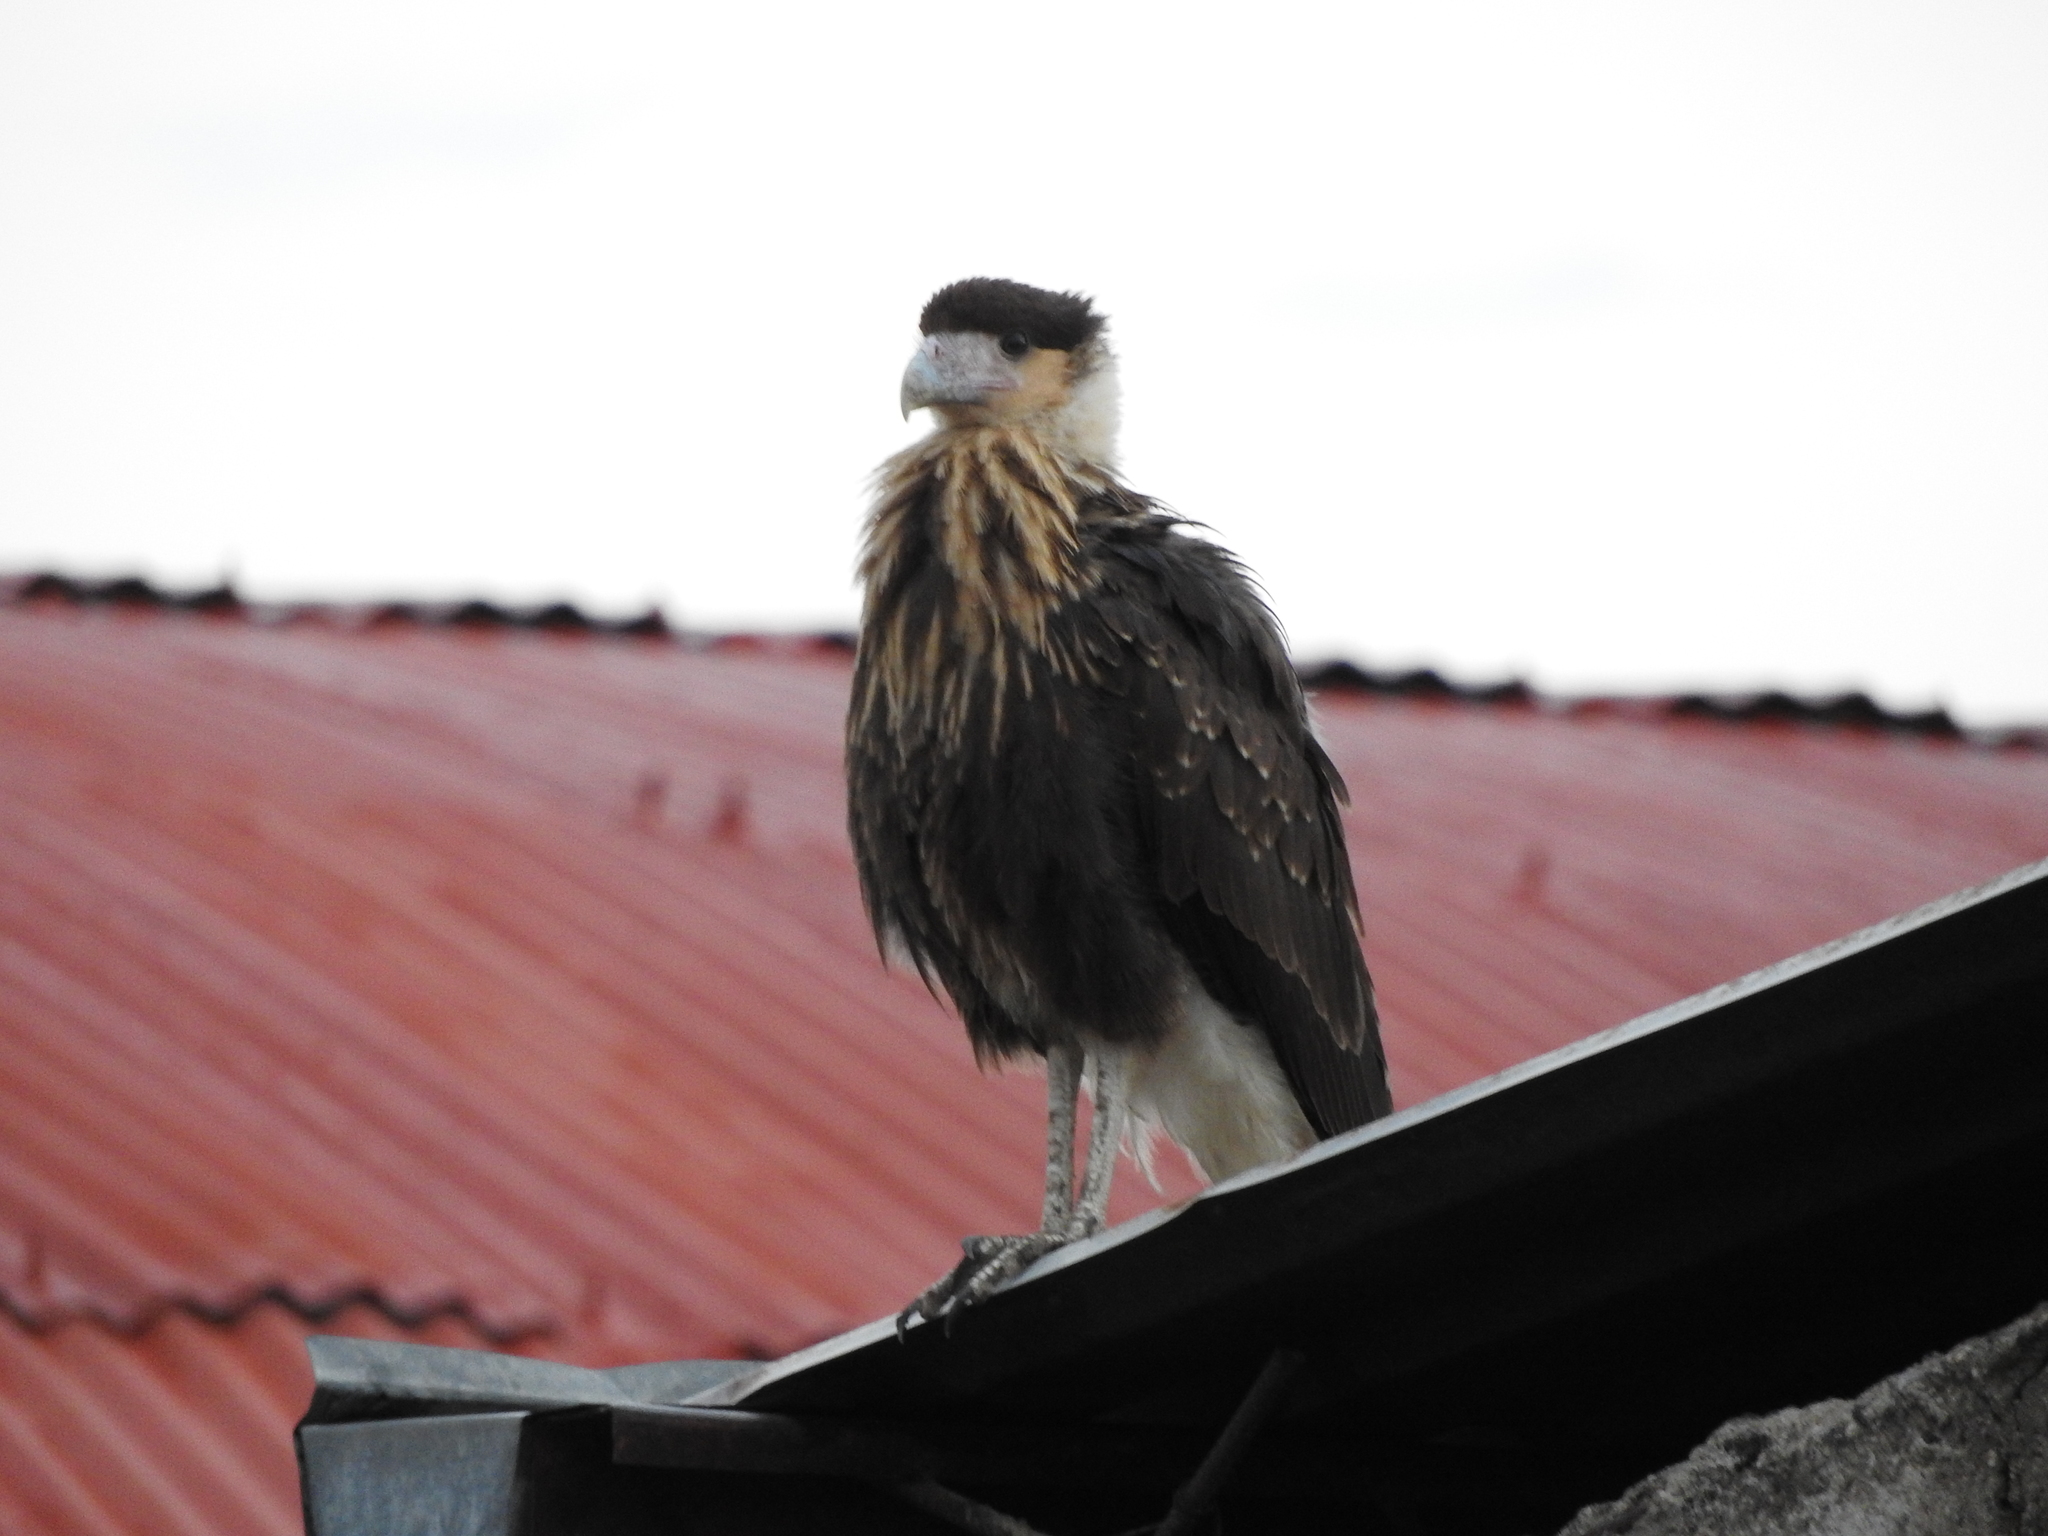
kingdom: Animalia
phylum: Chordata
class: Aves
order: Falconiformes
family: Falconidae
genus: Caracara
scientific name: Caracara plancus
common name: Southern caracara
